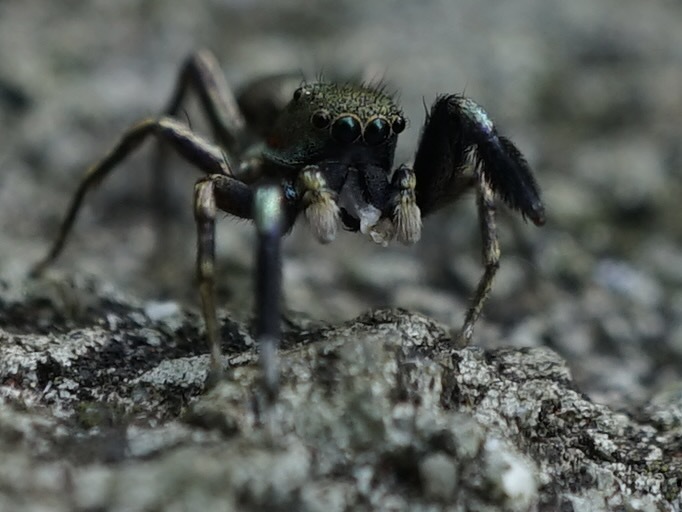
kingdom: Animalia
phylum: Arthropoda
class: Arachnida
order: Araneae
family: Salticidae
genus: Siler
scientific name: Siler cupreus
